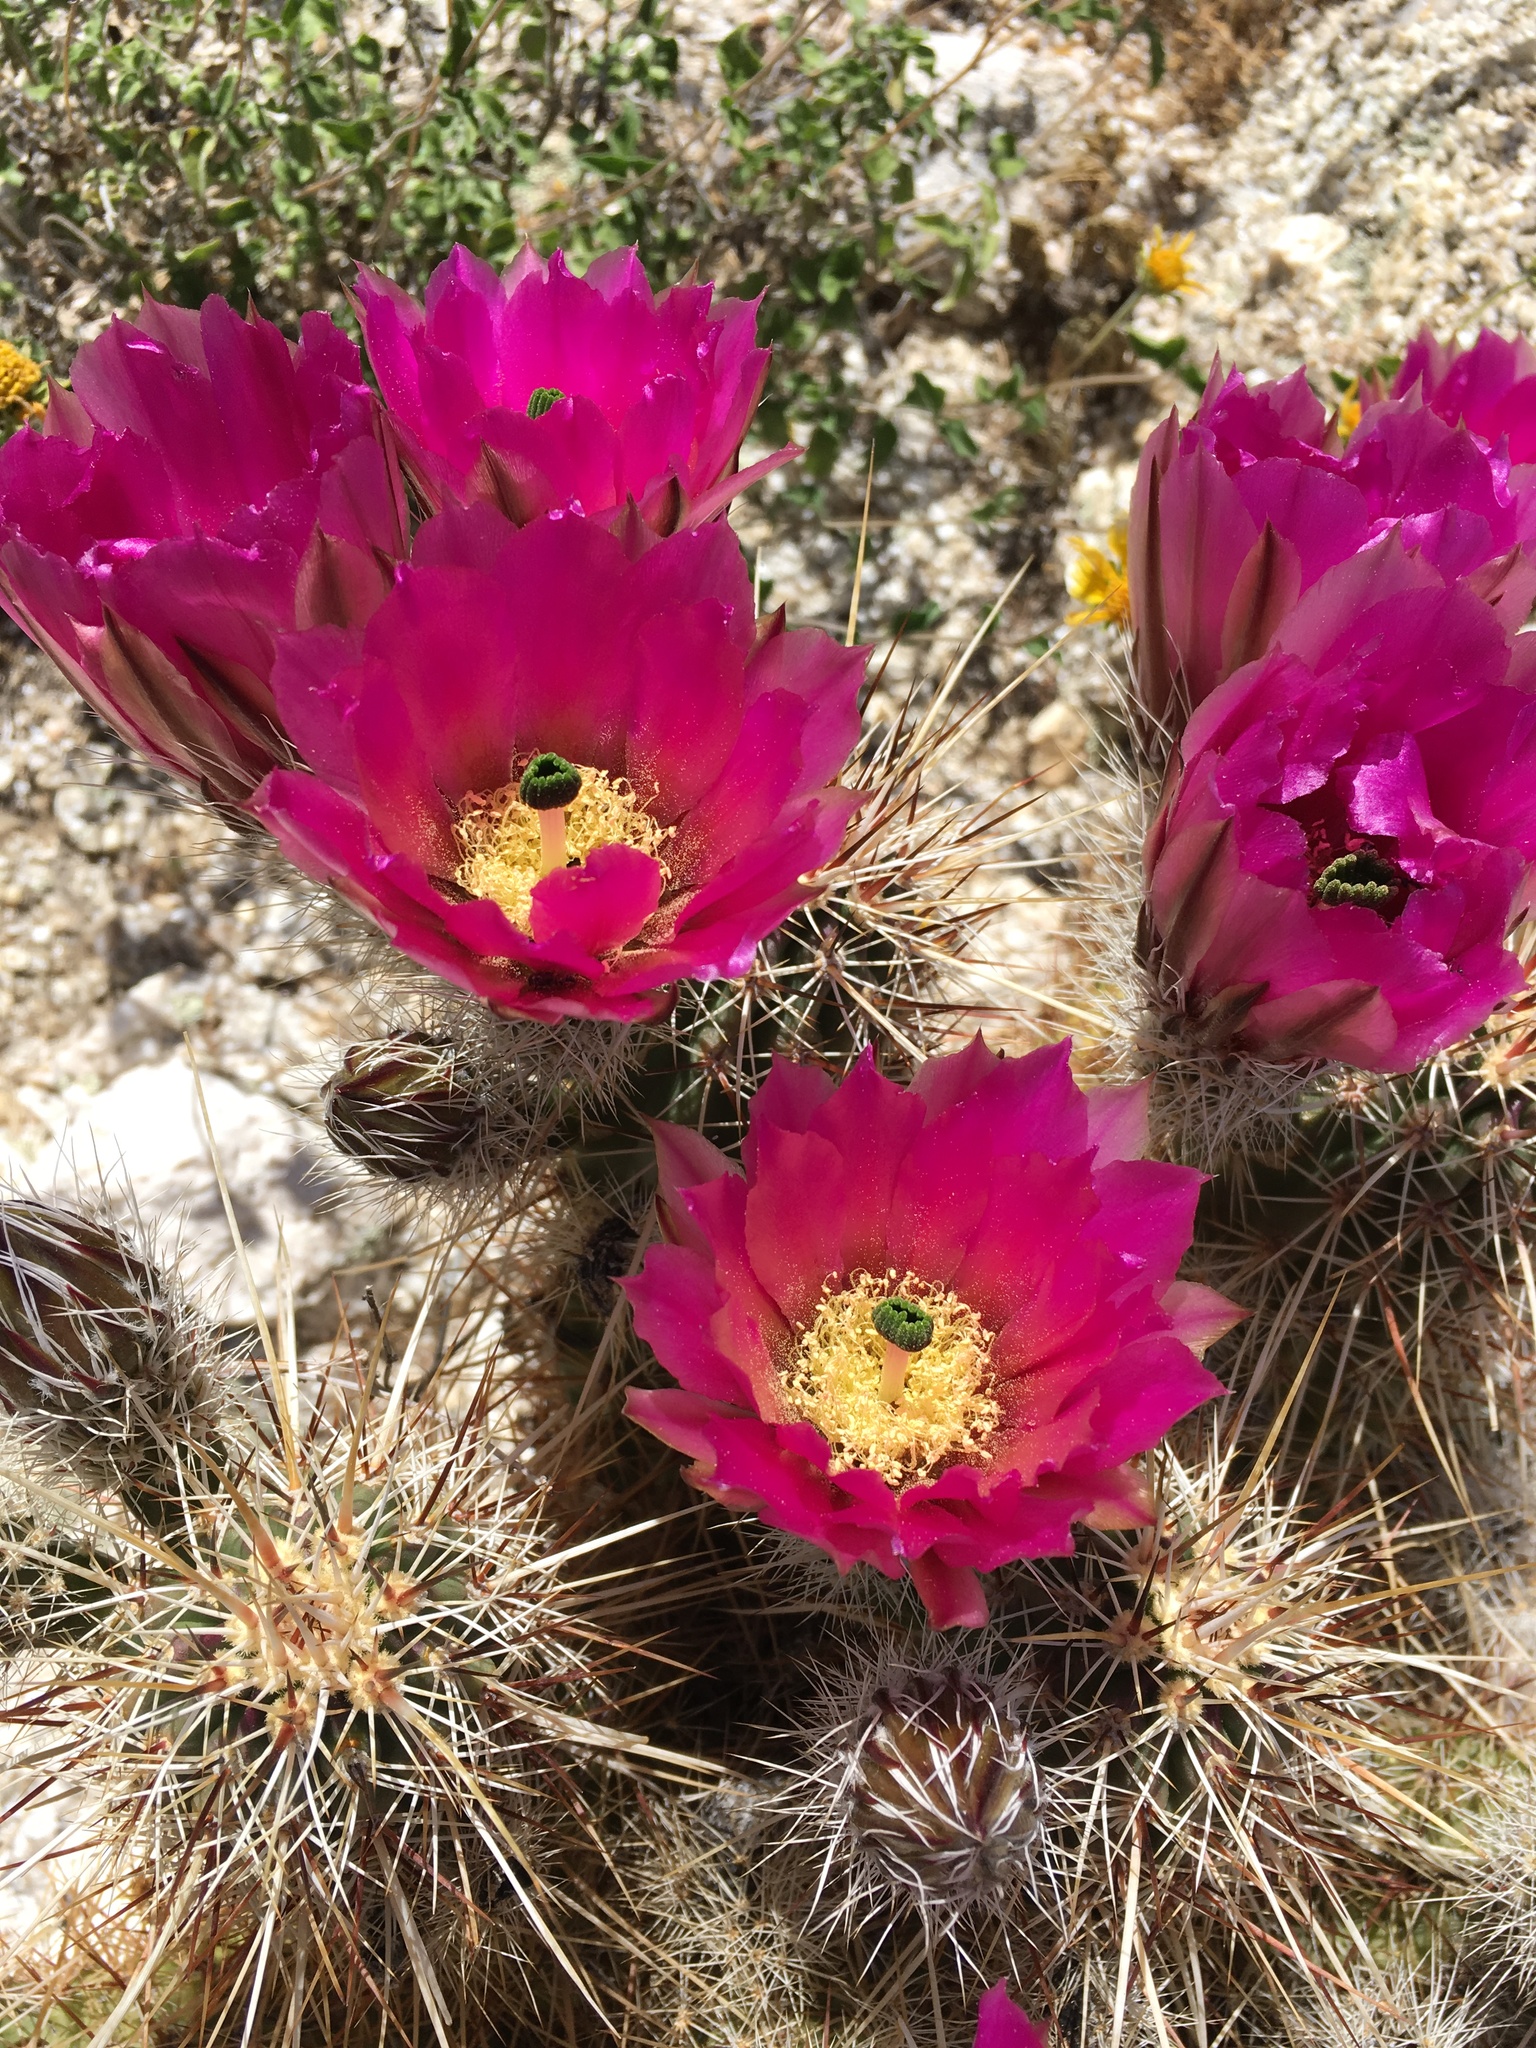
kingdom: Plantae
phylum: Tracheophyta
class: Magnoliopsida
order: Caryophyllales
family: Cactaceae
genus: Echinocereus
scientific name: Echinocereus engelmannii
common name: Engelmann's hedgehog cactus
